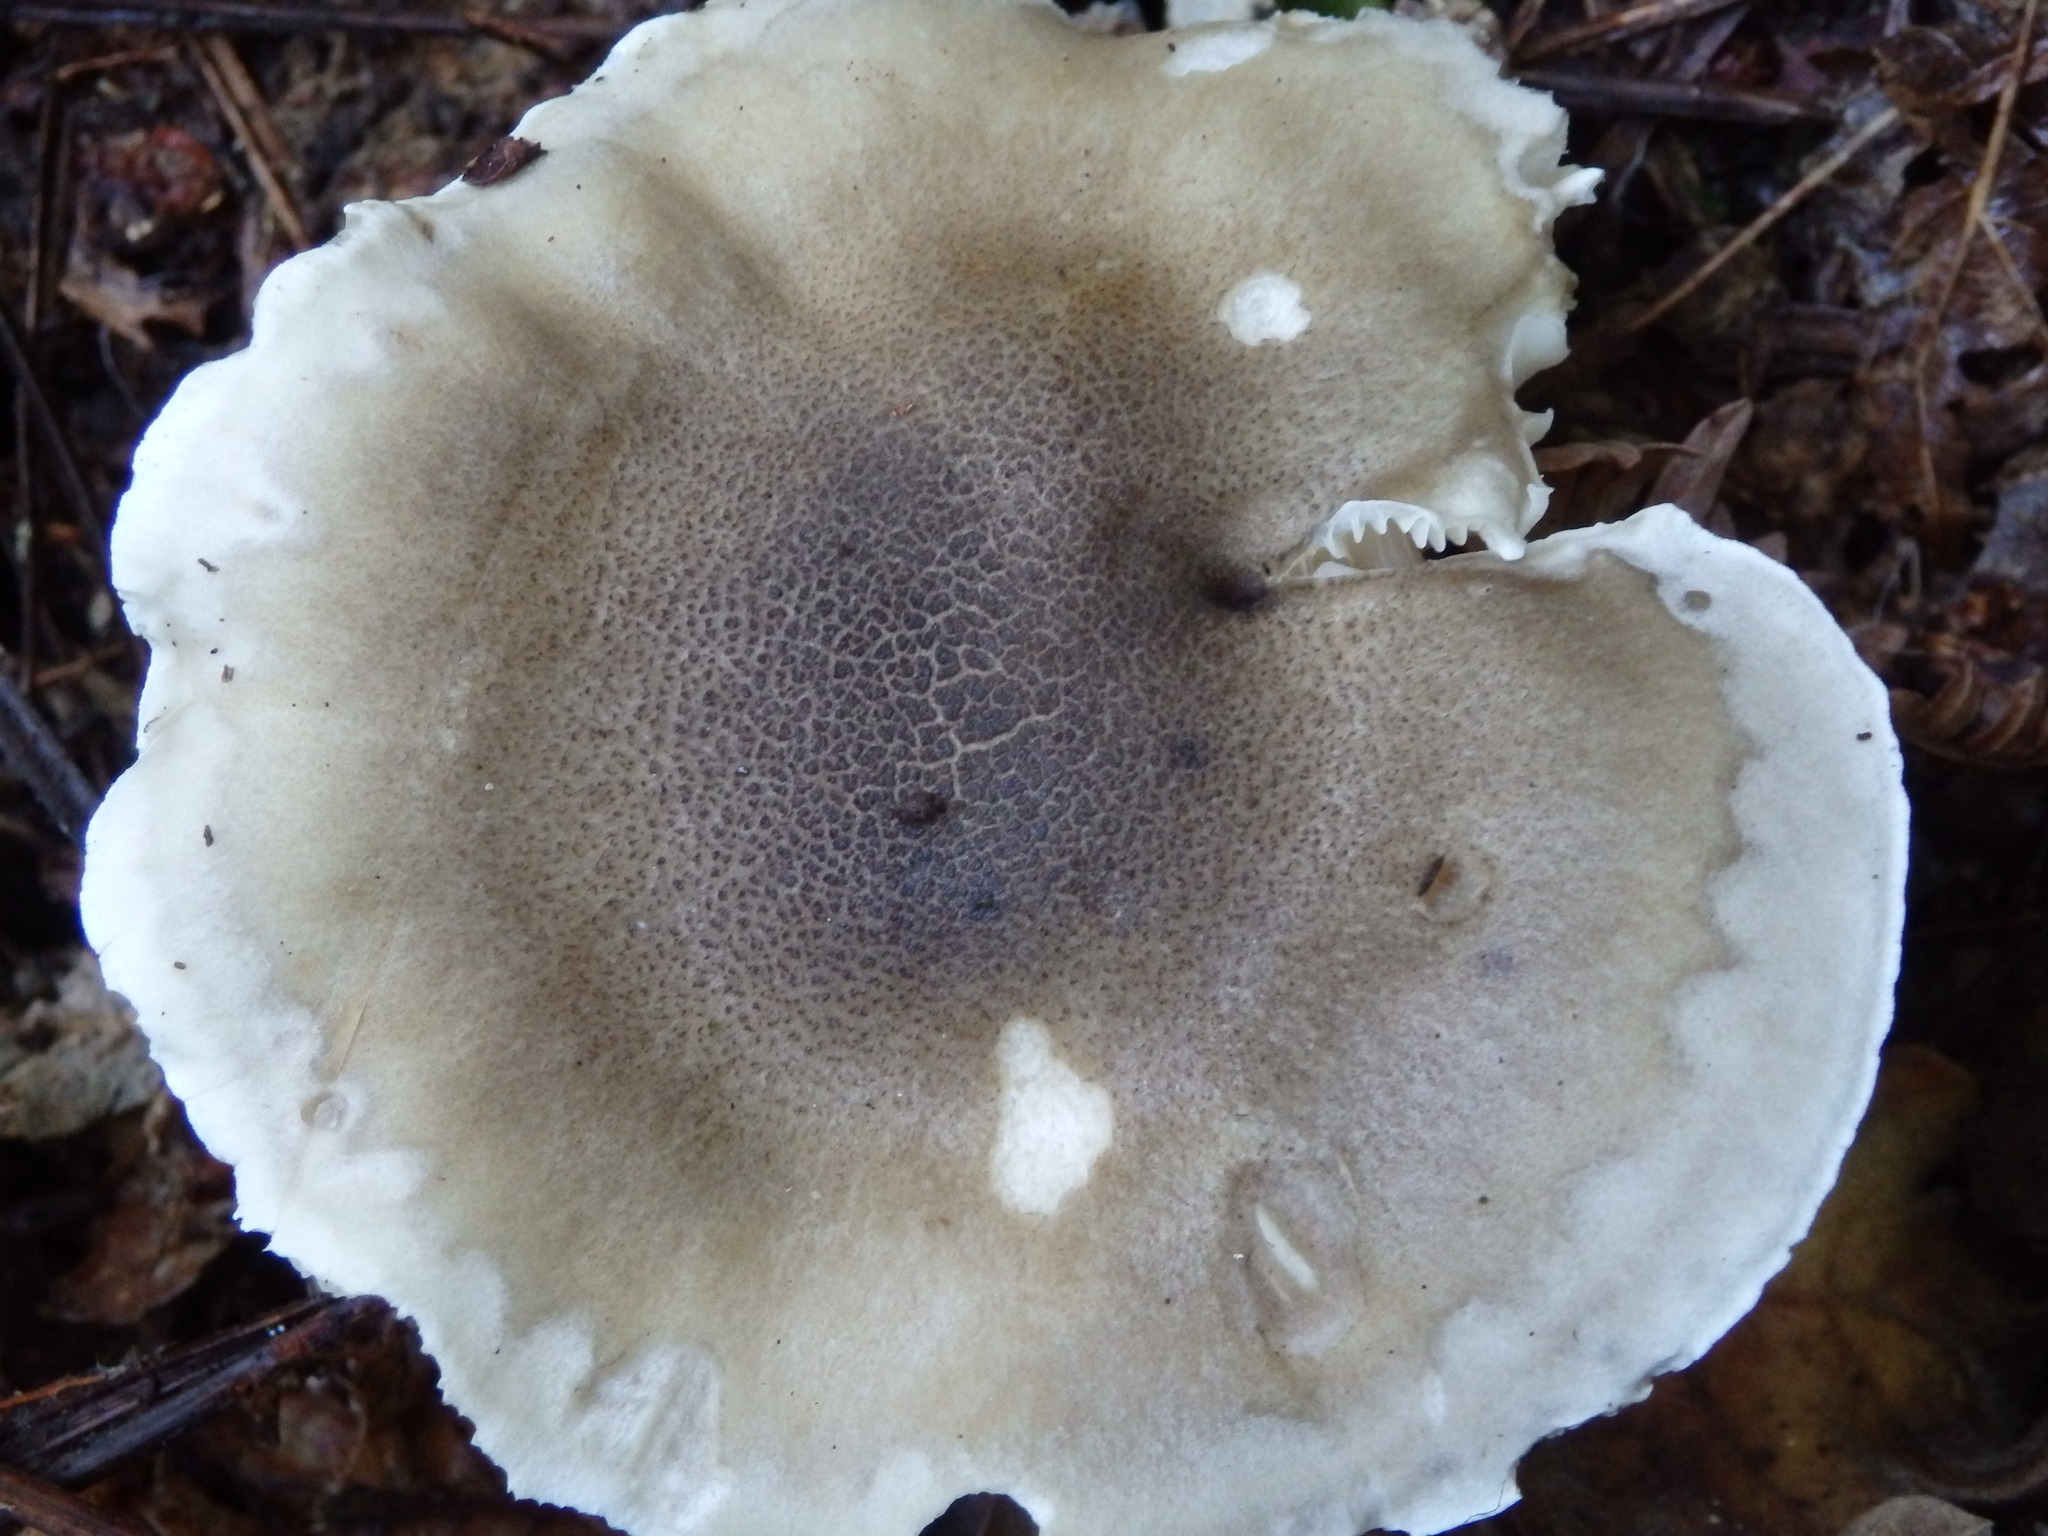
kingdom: Fungi
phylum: Basidiomycota
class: Agaricomycetes
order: Agaricales
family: Tricholomataceae
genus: Tricholoma
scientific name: Tricholoma saponaceum
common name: Soapy trich
